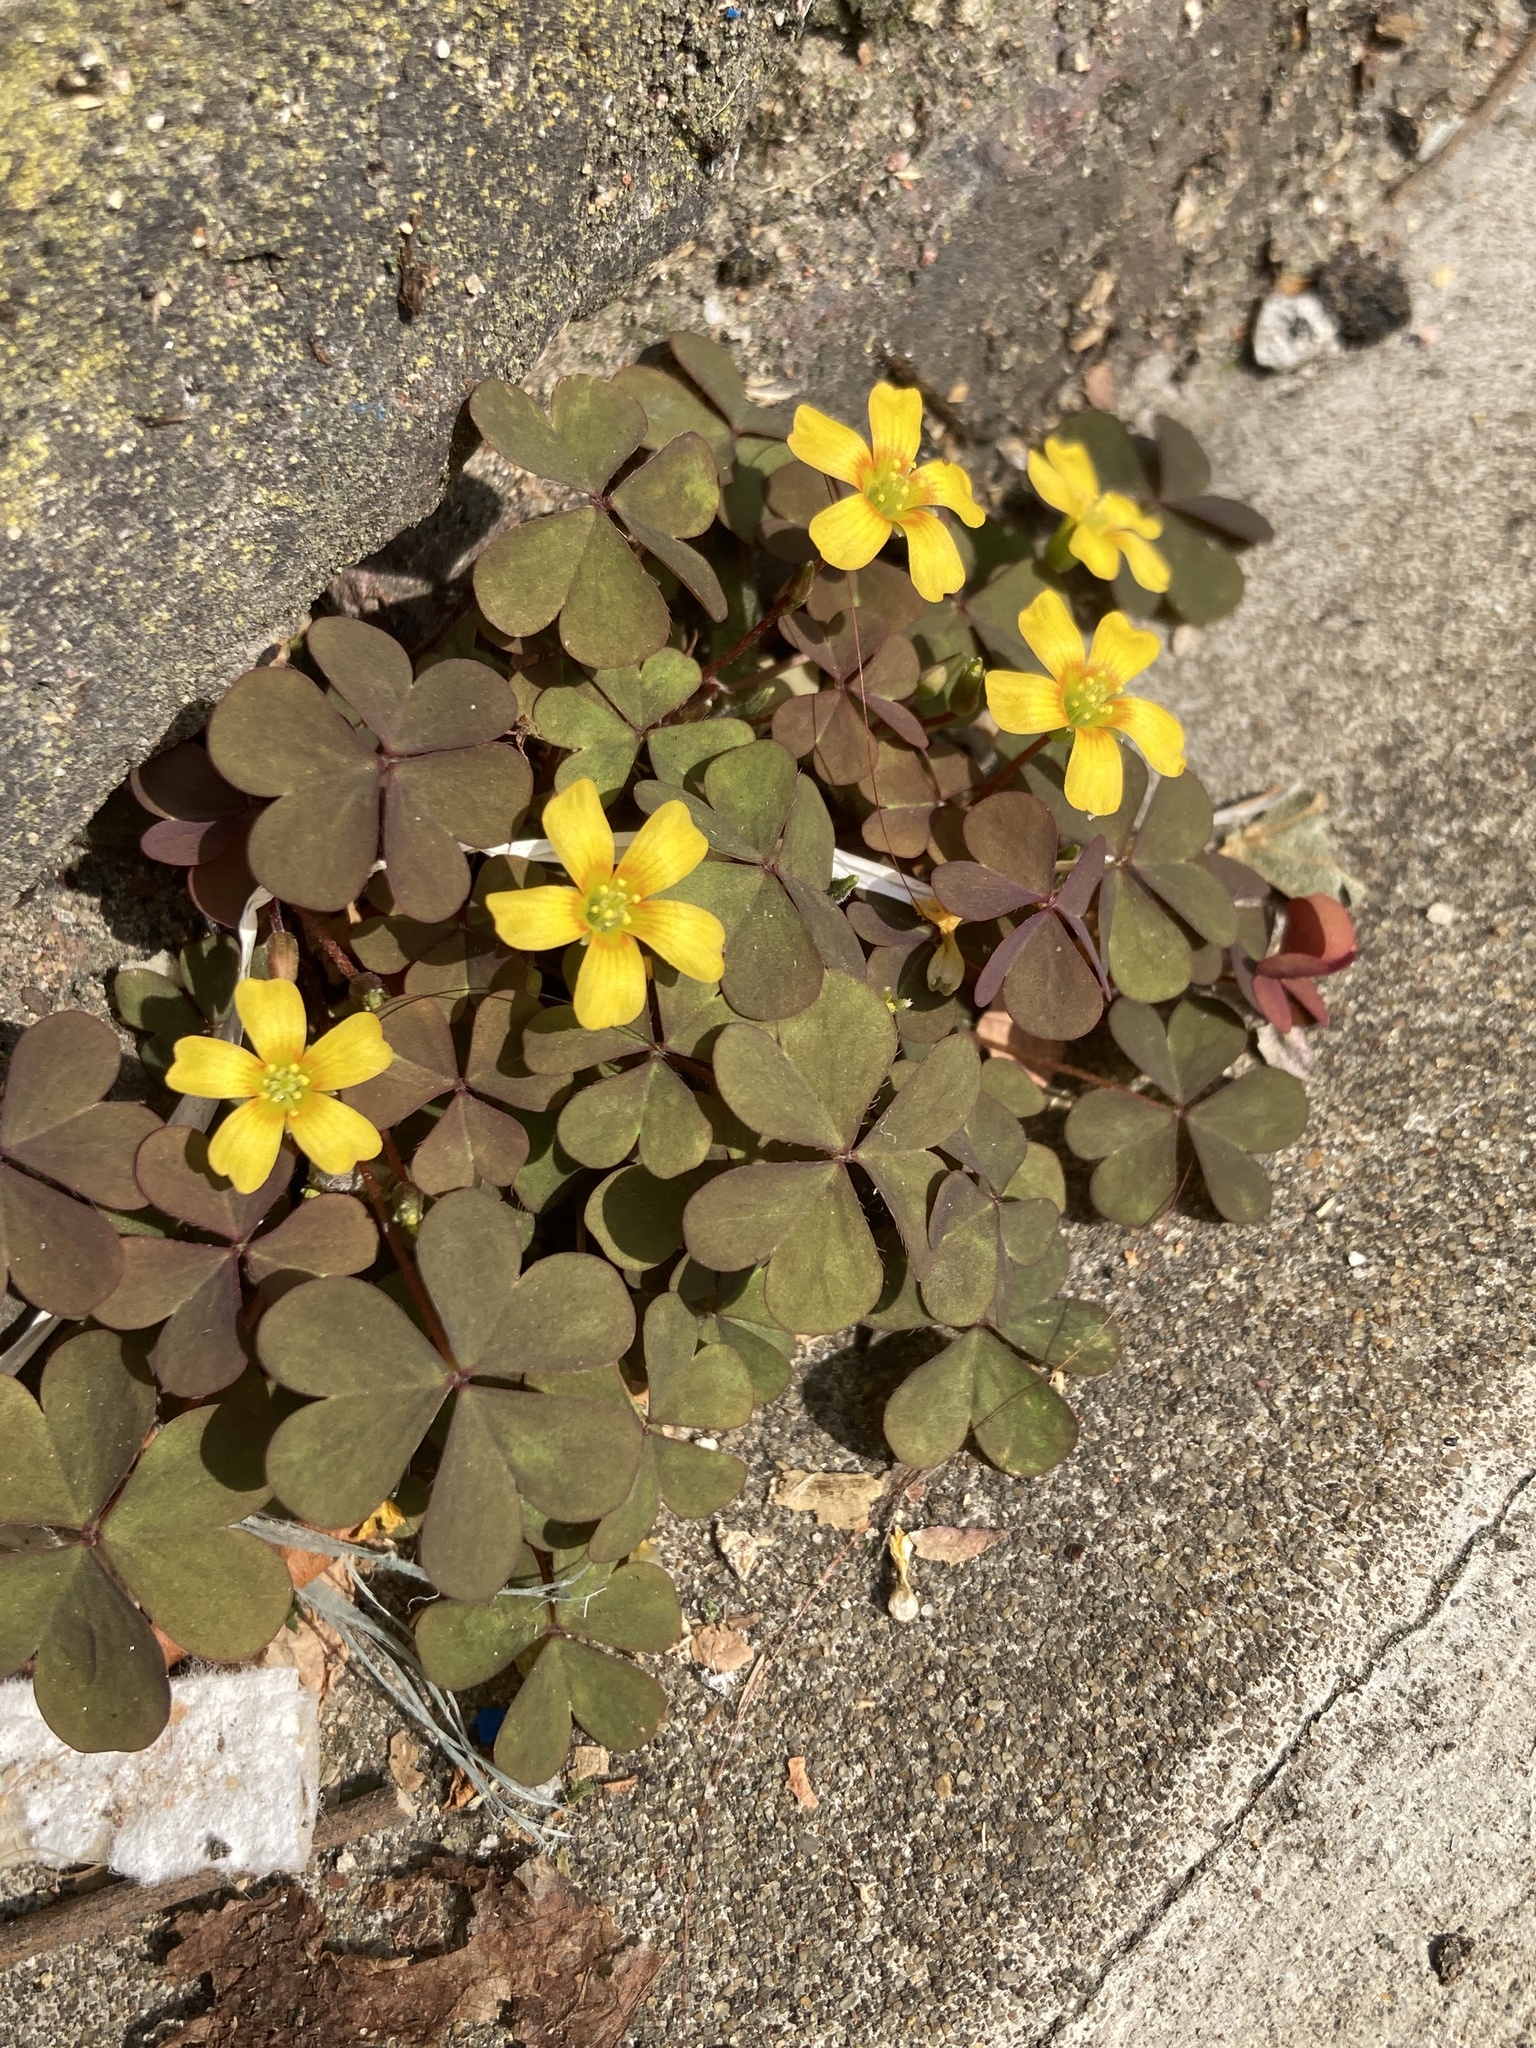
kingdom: Plantae
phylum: Tracheophyta
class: Magnoliopsida
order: Oxalidales
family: Oxalidaceae
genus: Oxalis
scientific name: Oxalis corniculata
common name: Procumbent yellow-sorrel
